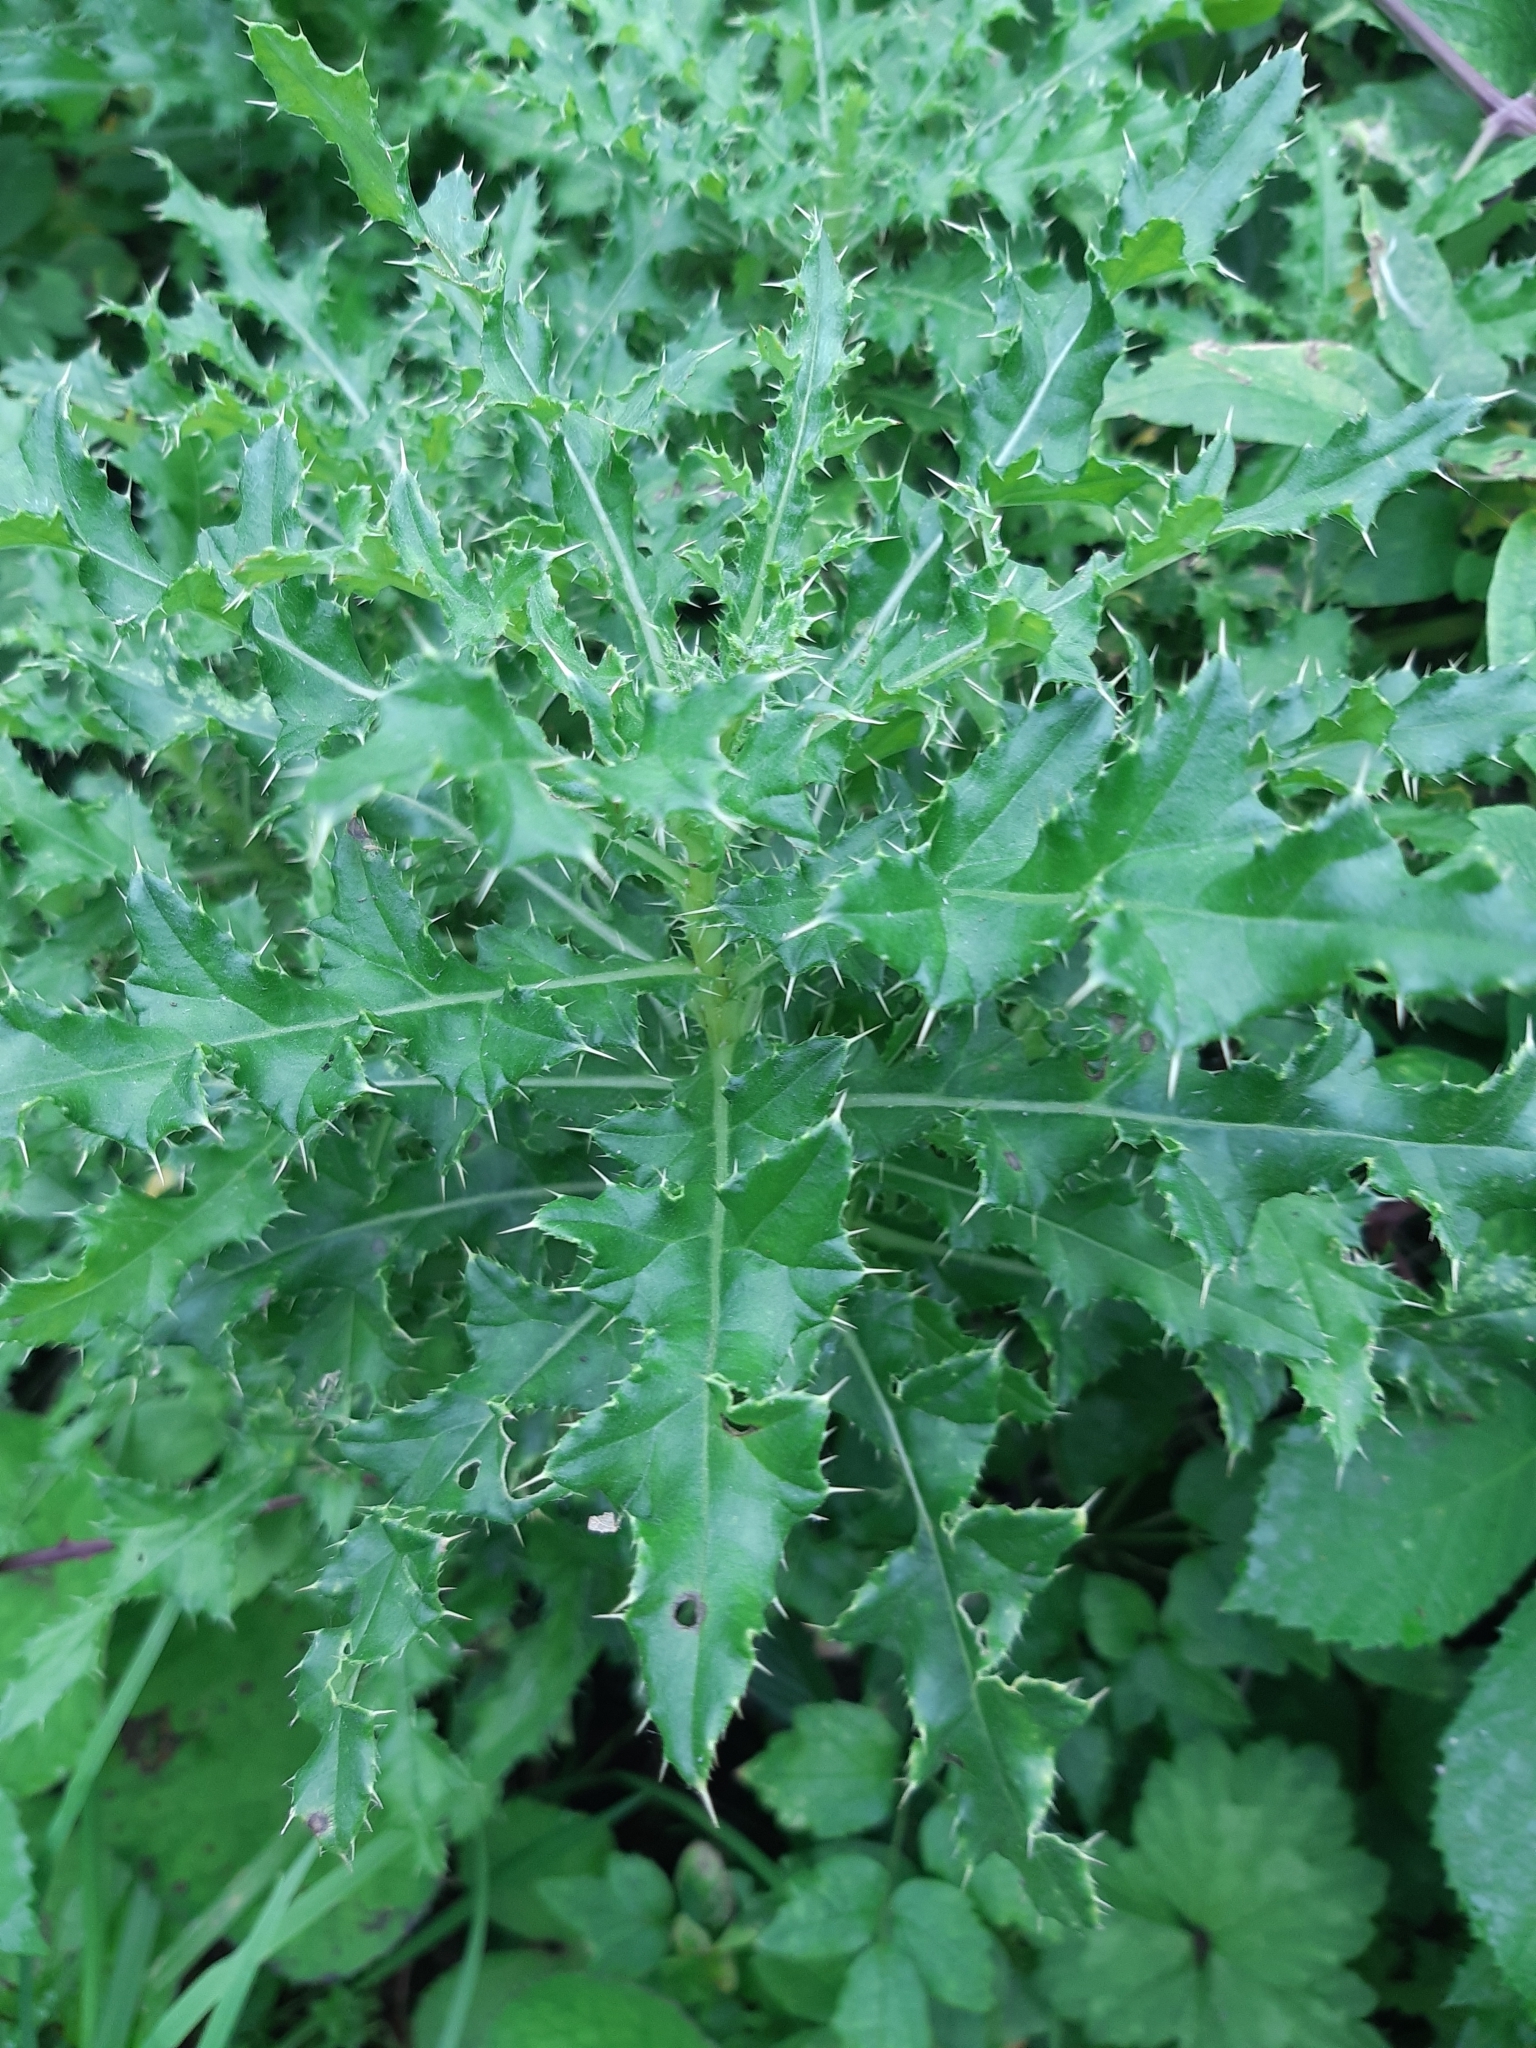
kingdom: Plantae
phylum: Tracheophyta
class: Magnoliopsida
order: Asterales
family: Asteraceae
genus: Cirsium
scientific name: Cirsium arvense
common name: Creeping thistle
